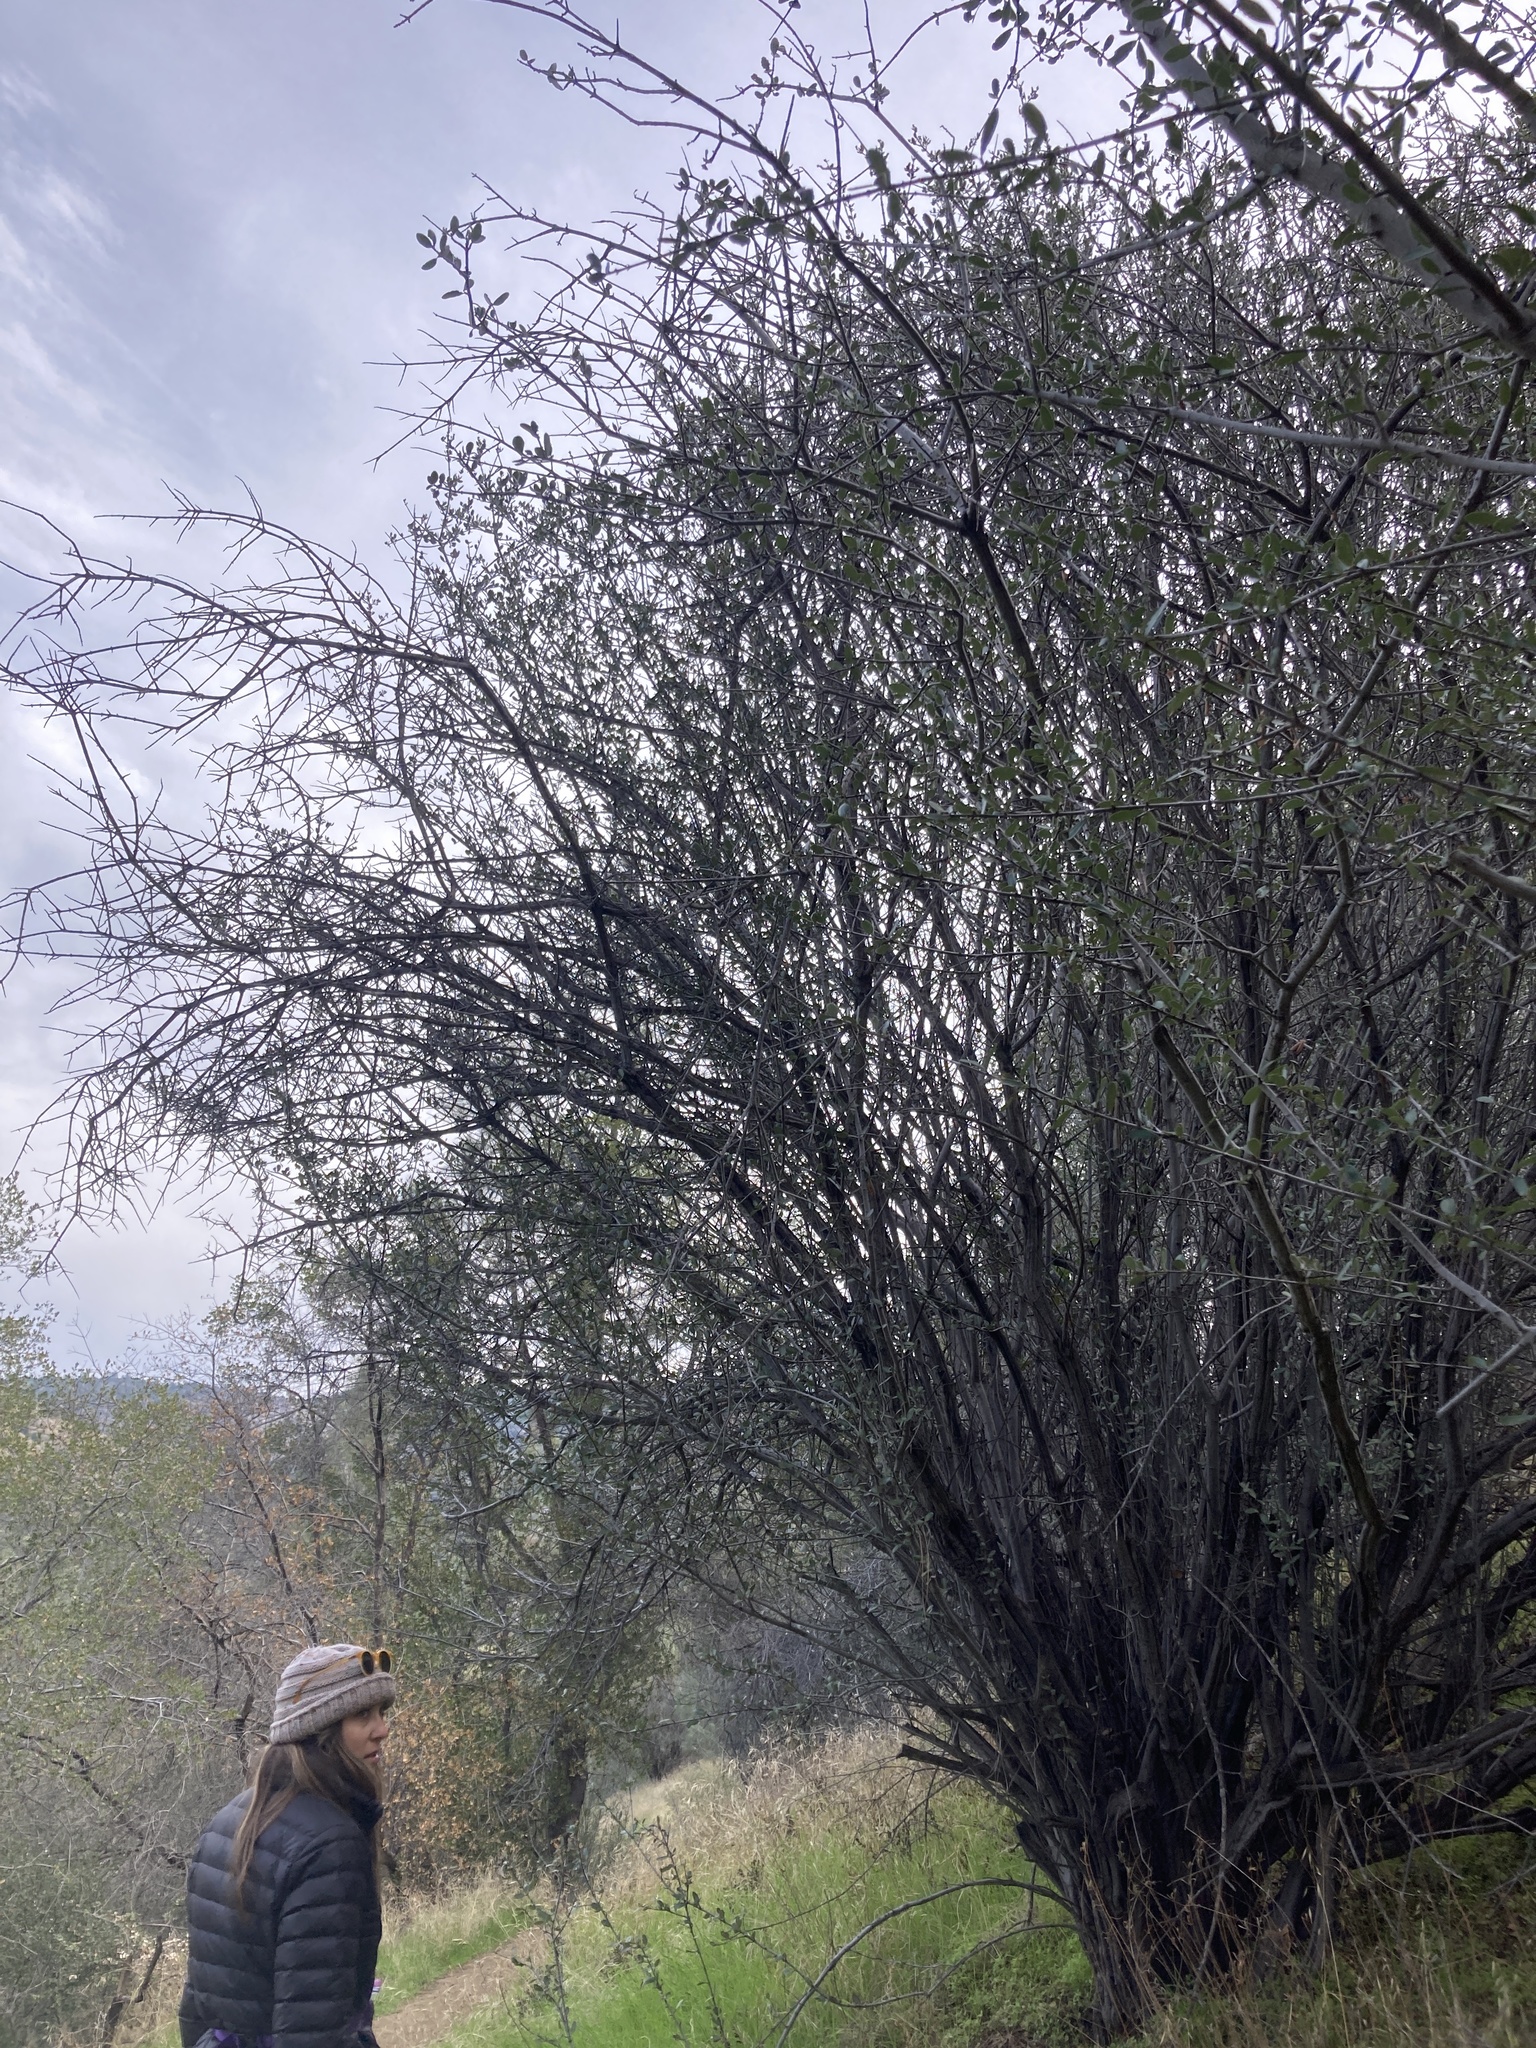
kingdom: Plantae
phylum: Tracheophyta
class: Magnoliopsida
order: Rosales
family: Rhamnaceae
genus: Ceanothus
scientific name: Ceanothus cuneatus
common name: Cuneate ceanothus
